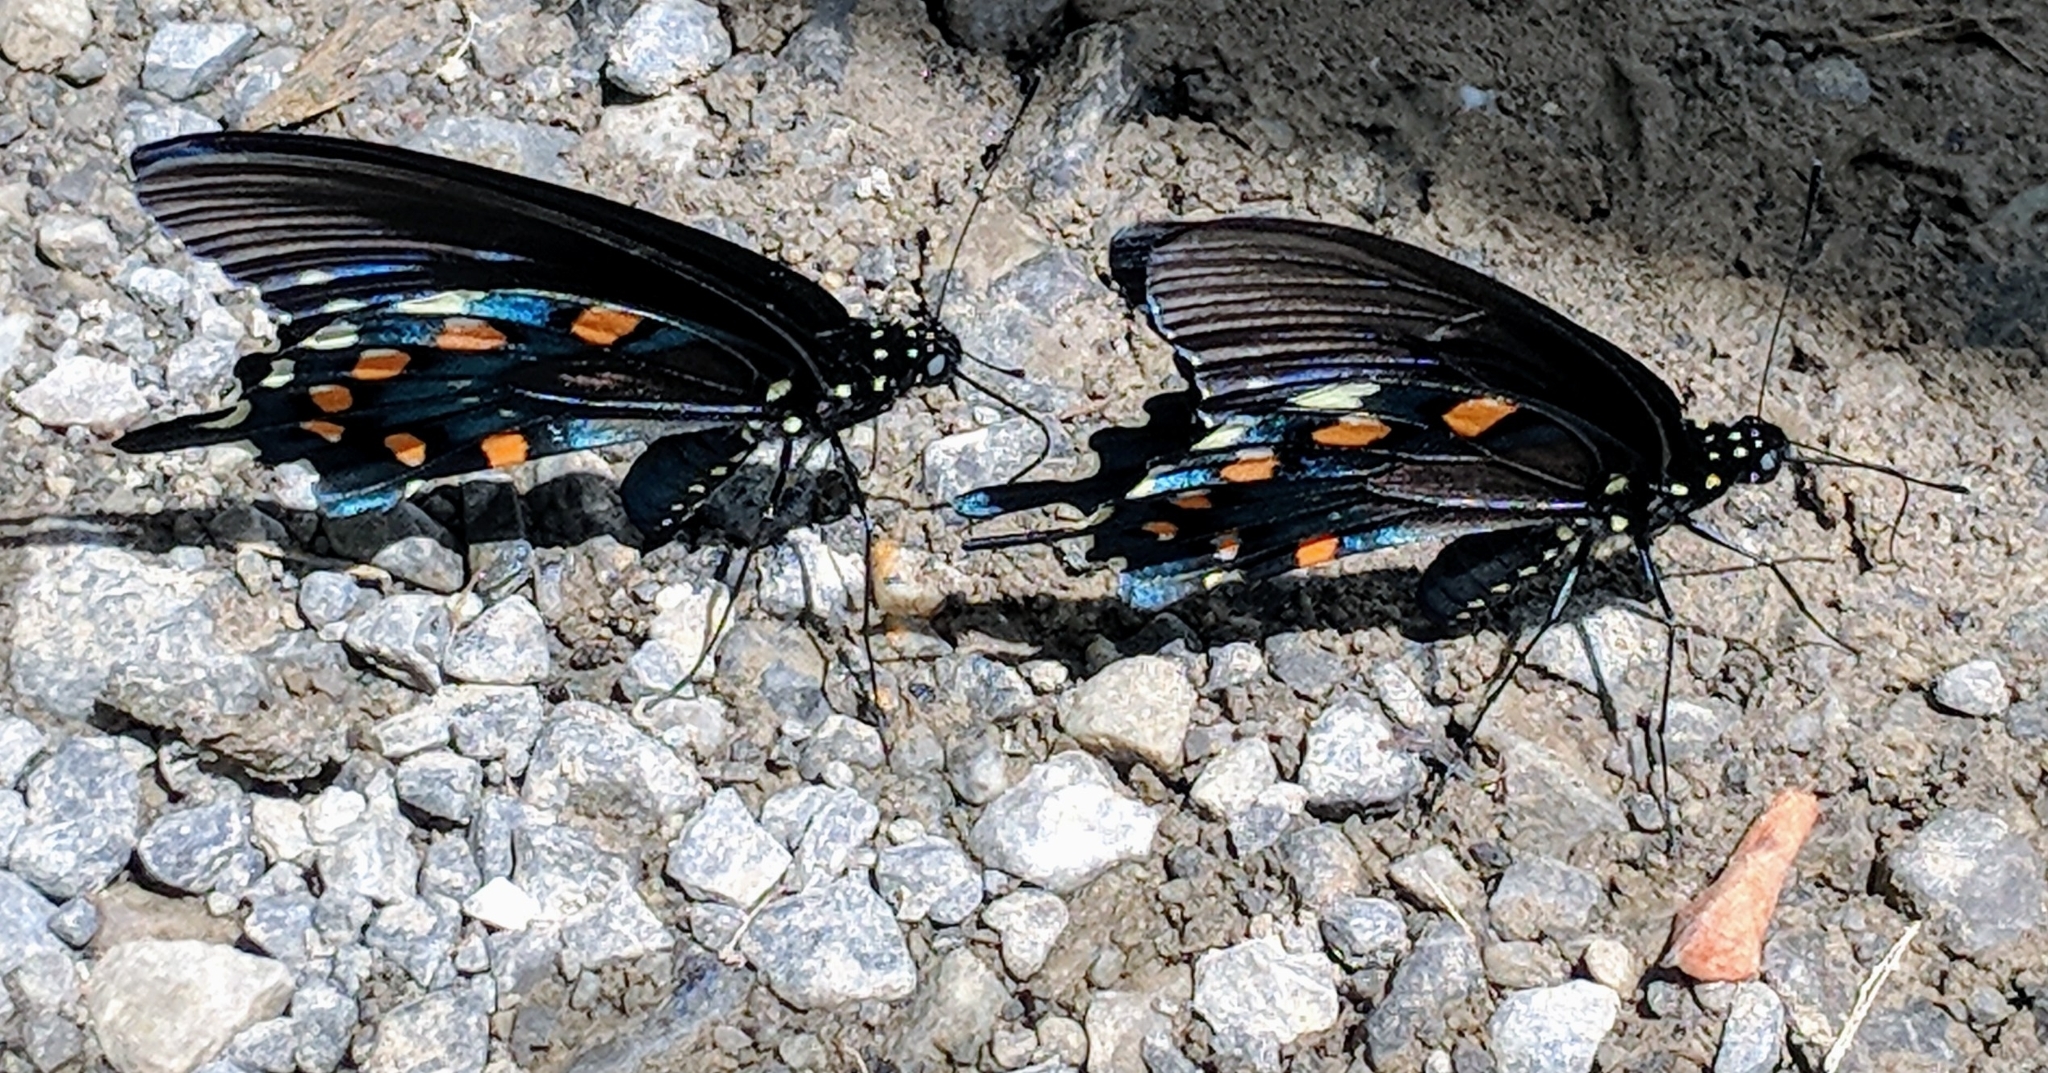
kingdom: Animalia
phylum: Arthropoda
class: Insecta
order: Lepidoptera
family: Papilionidae
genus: Battus
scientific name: Battus philenor
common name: Pipevine swallowtail
